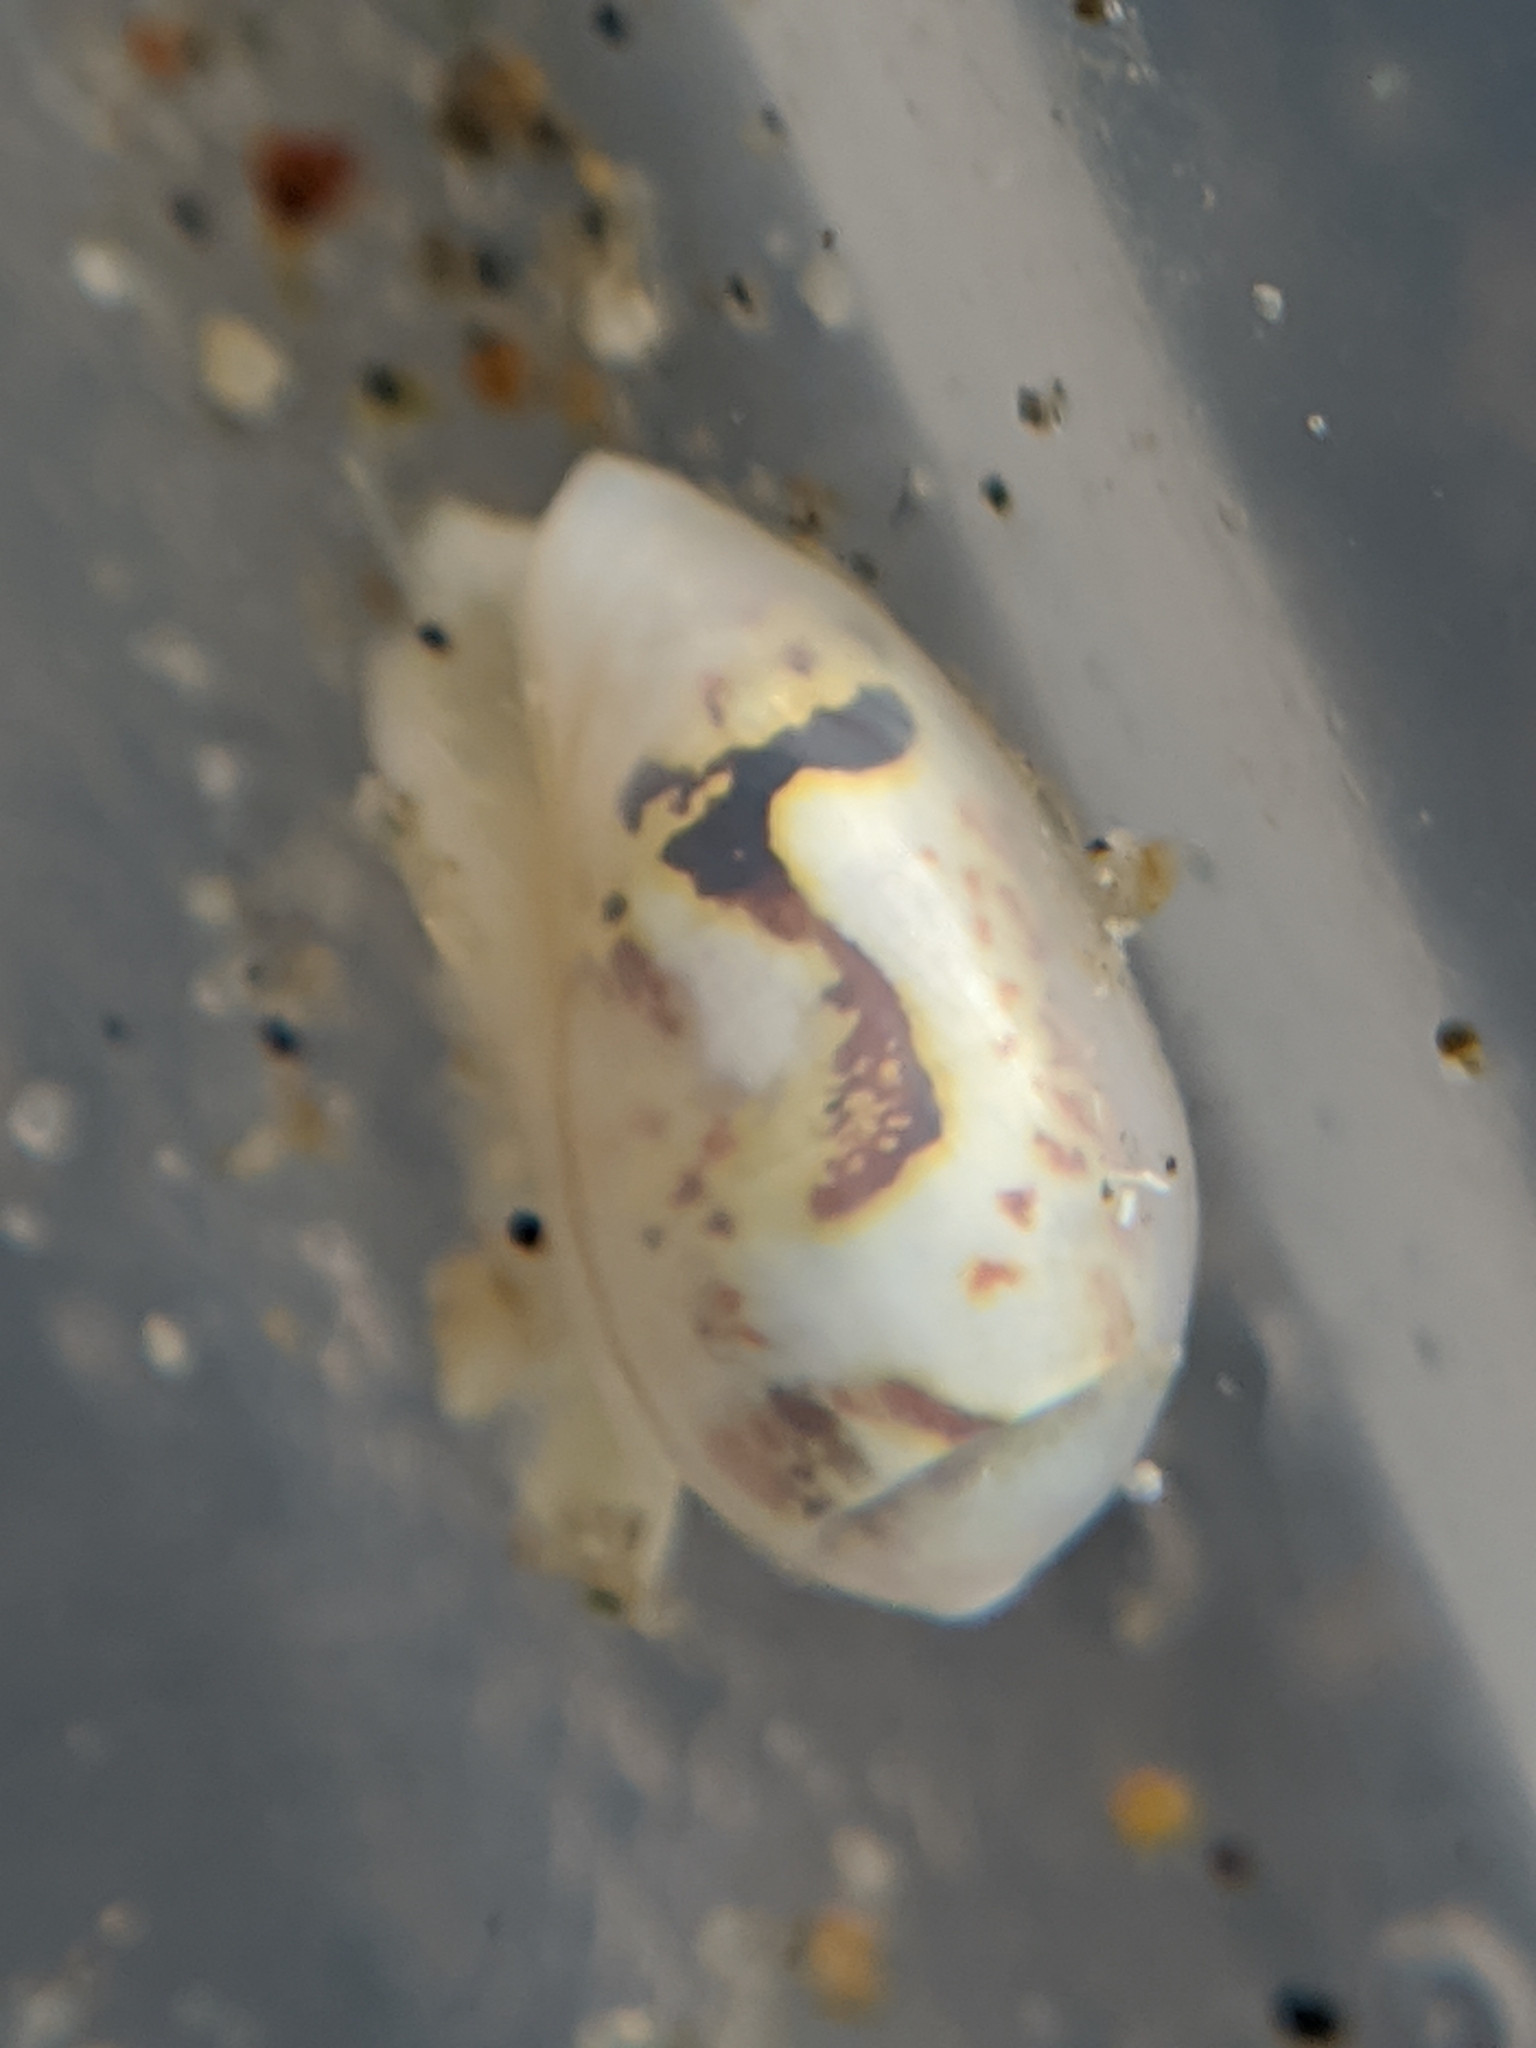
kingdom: Animalia
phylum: Mollusca
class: Gastropoda
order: Neogastropoda
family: Cystiscidae
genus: Plesiocystiscus
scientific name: Plesiocystiscus jewettii
